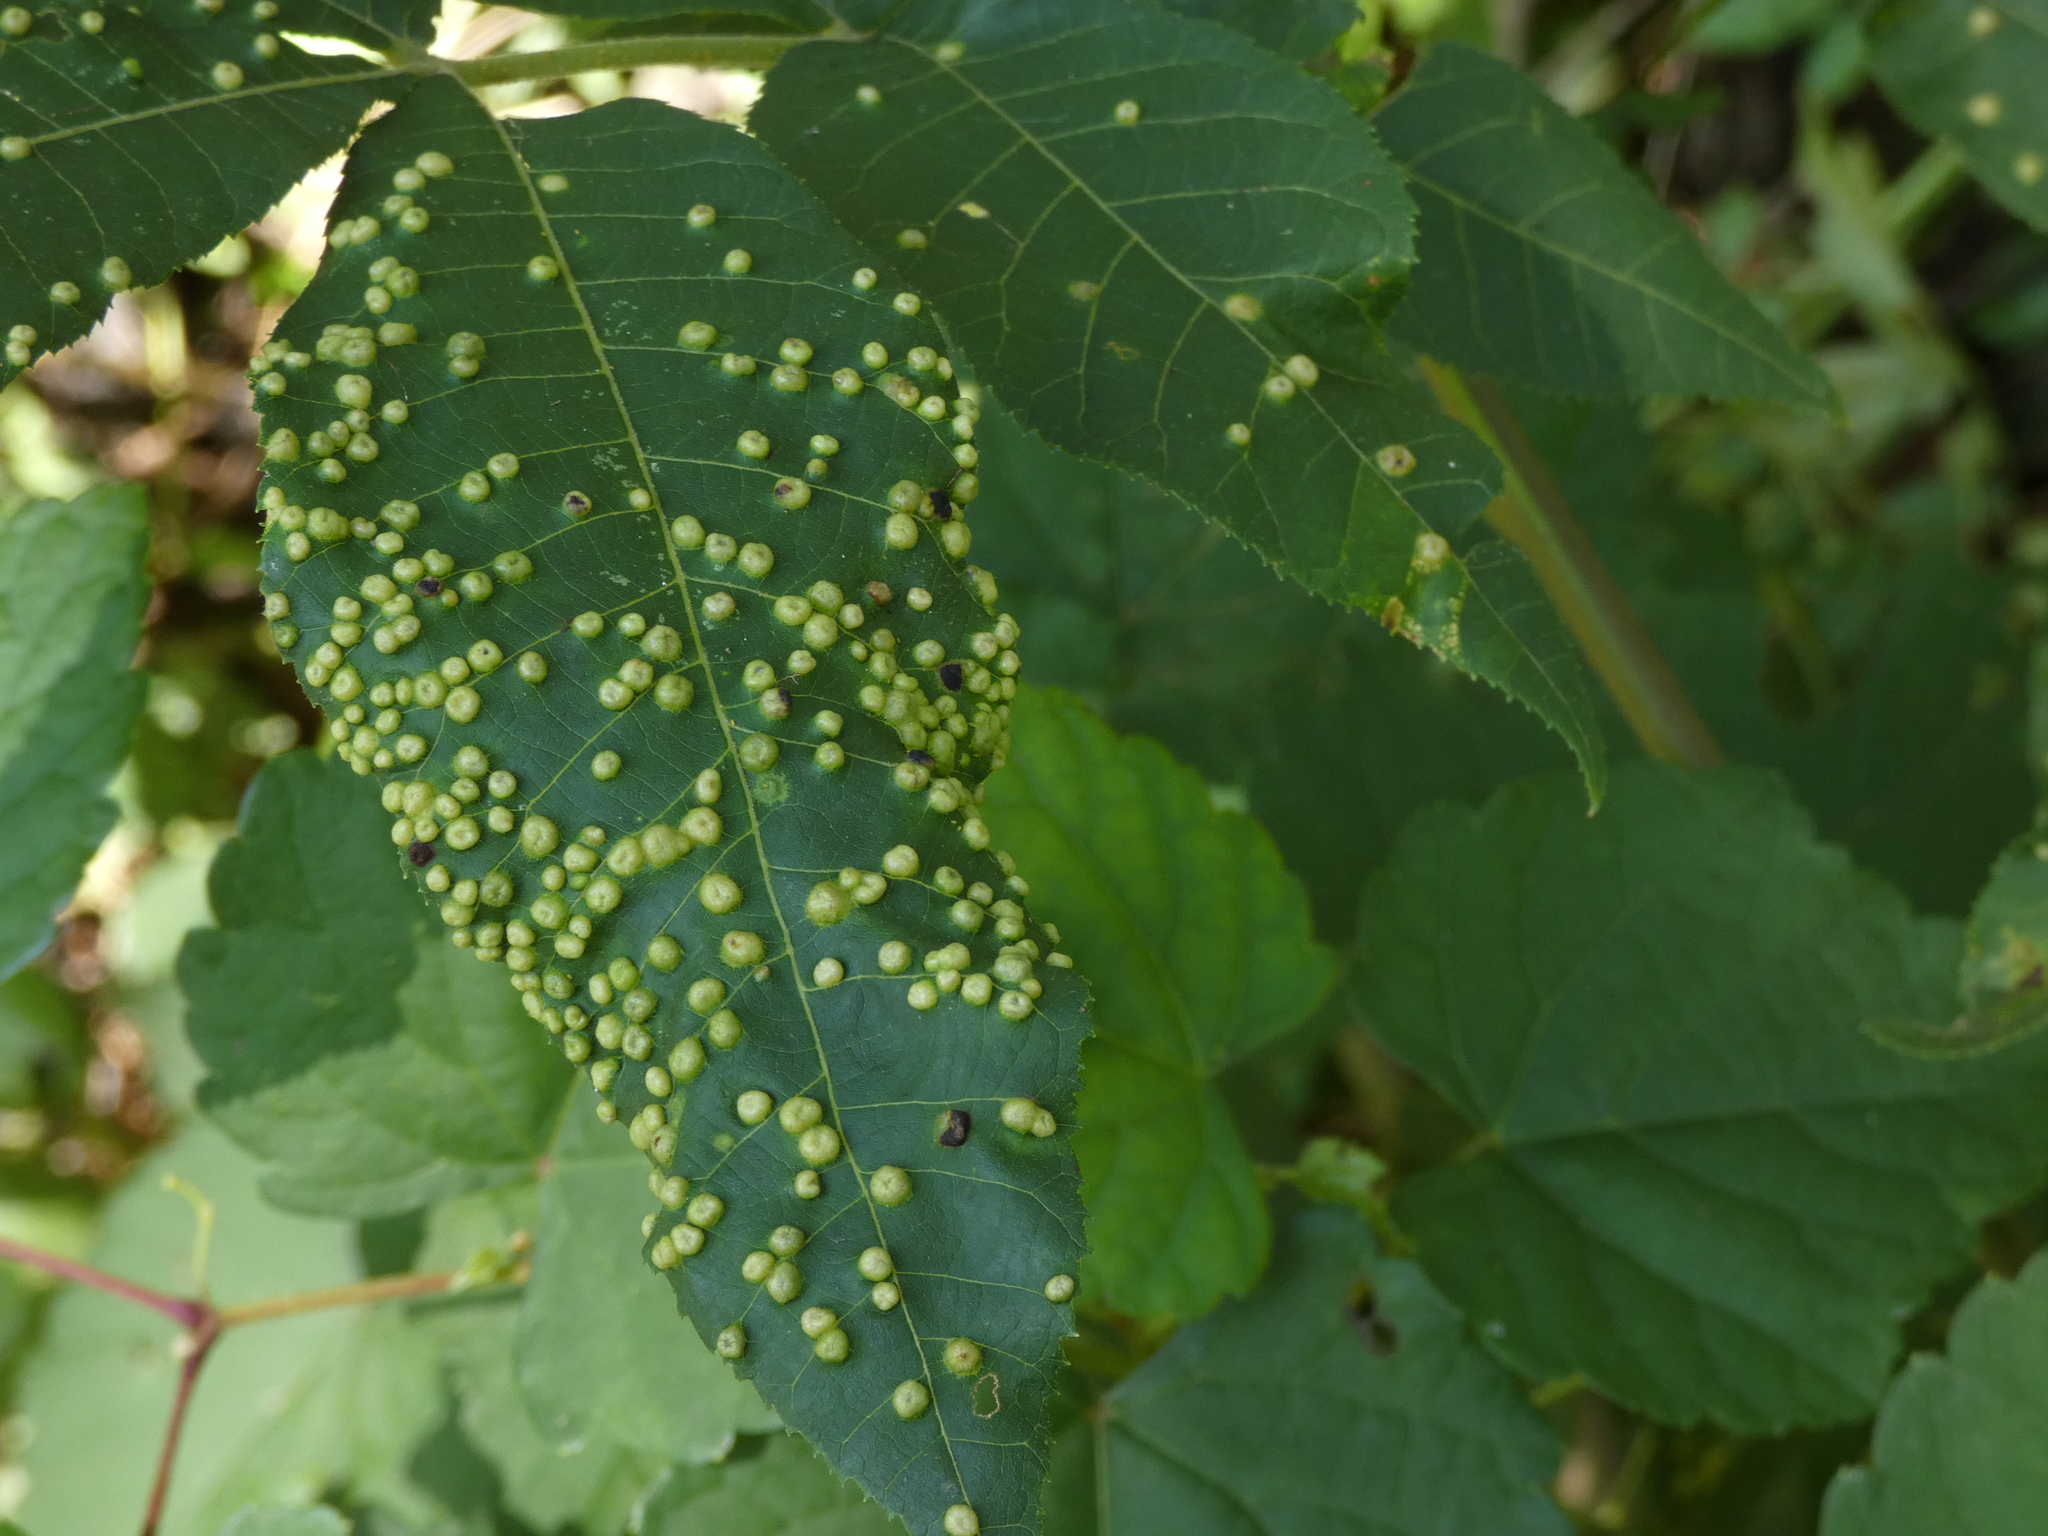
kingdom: Animalia
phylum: Arthropoda
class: Insecta
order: Hemiptera
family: Phylloxeridae
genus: Phylloxera
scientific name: Phylloxera caryae-semen
